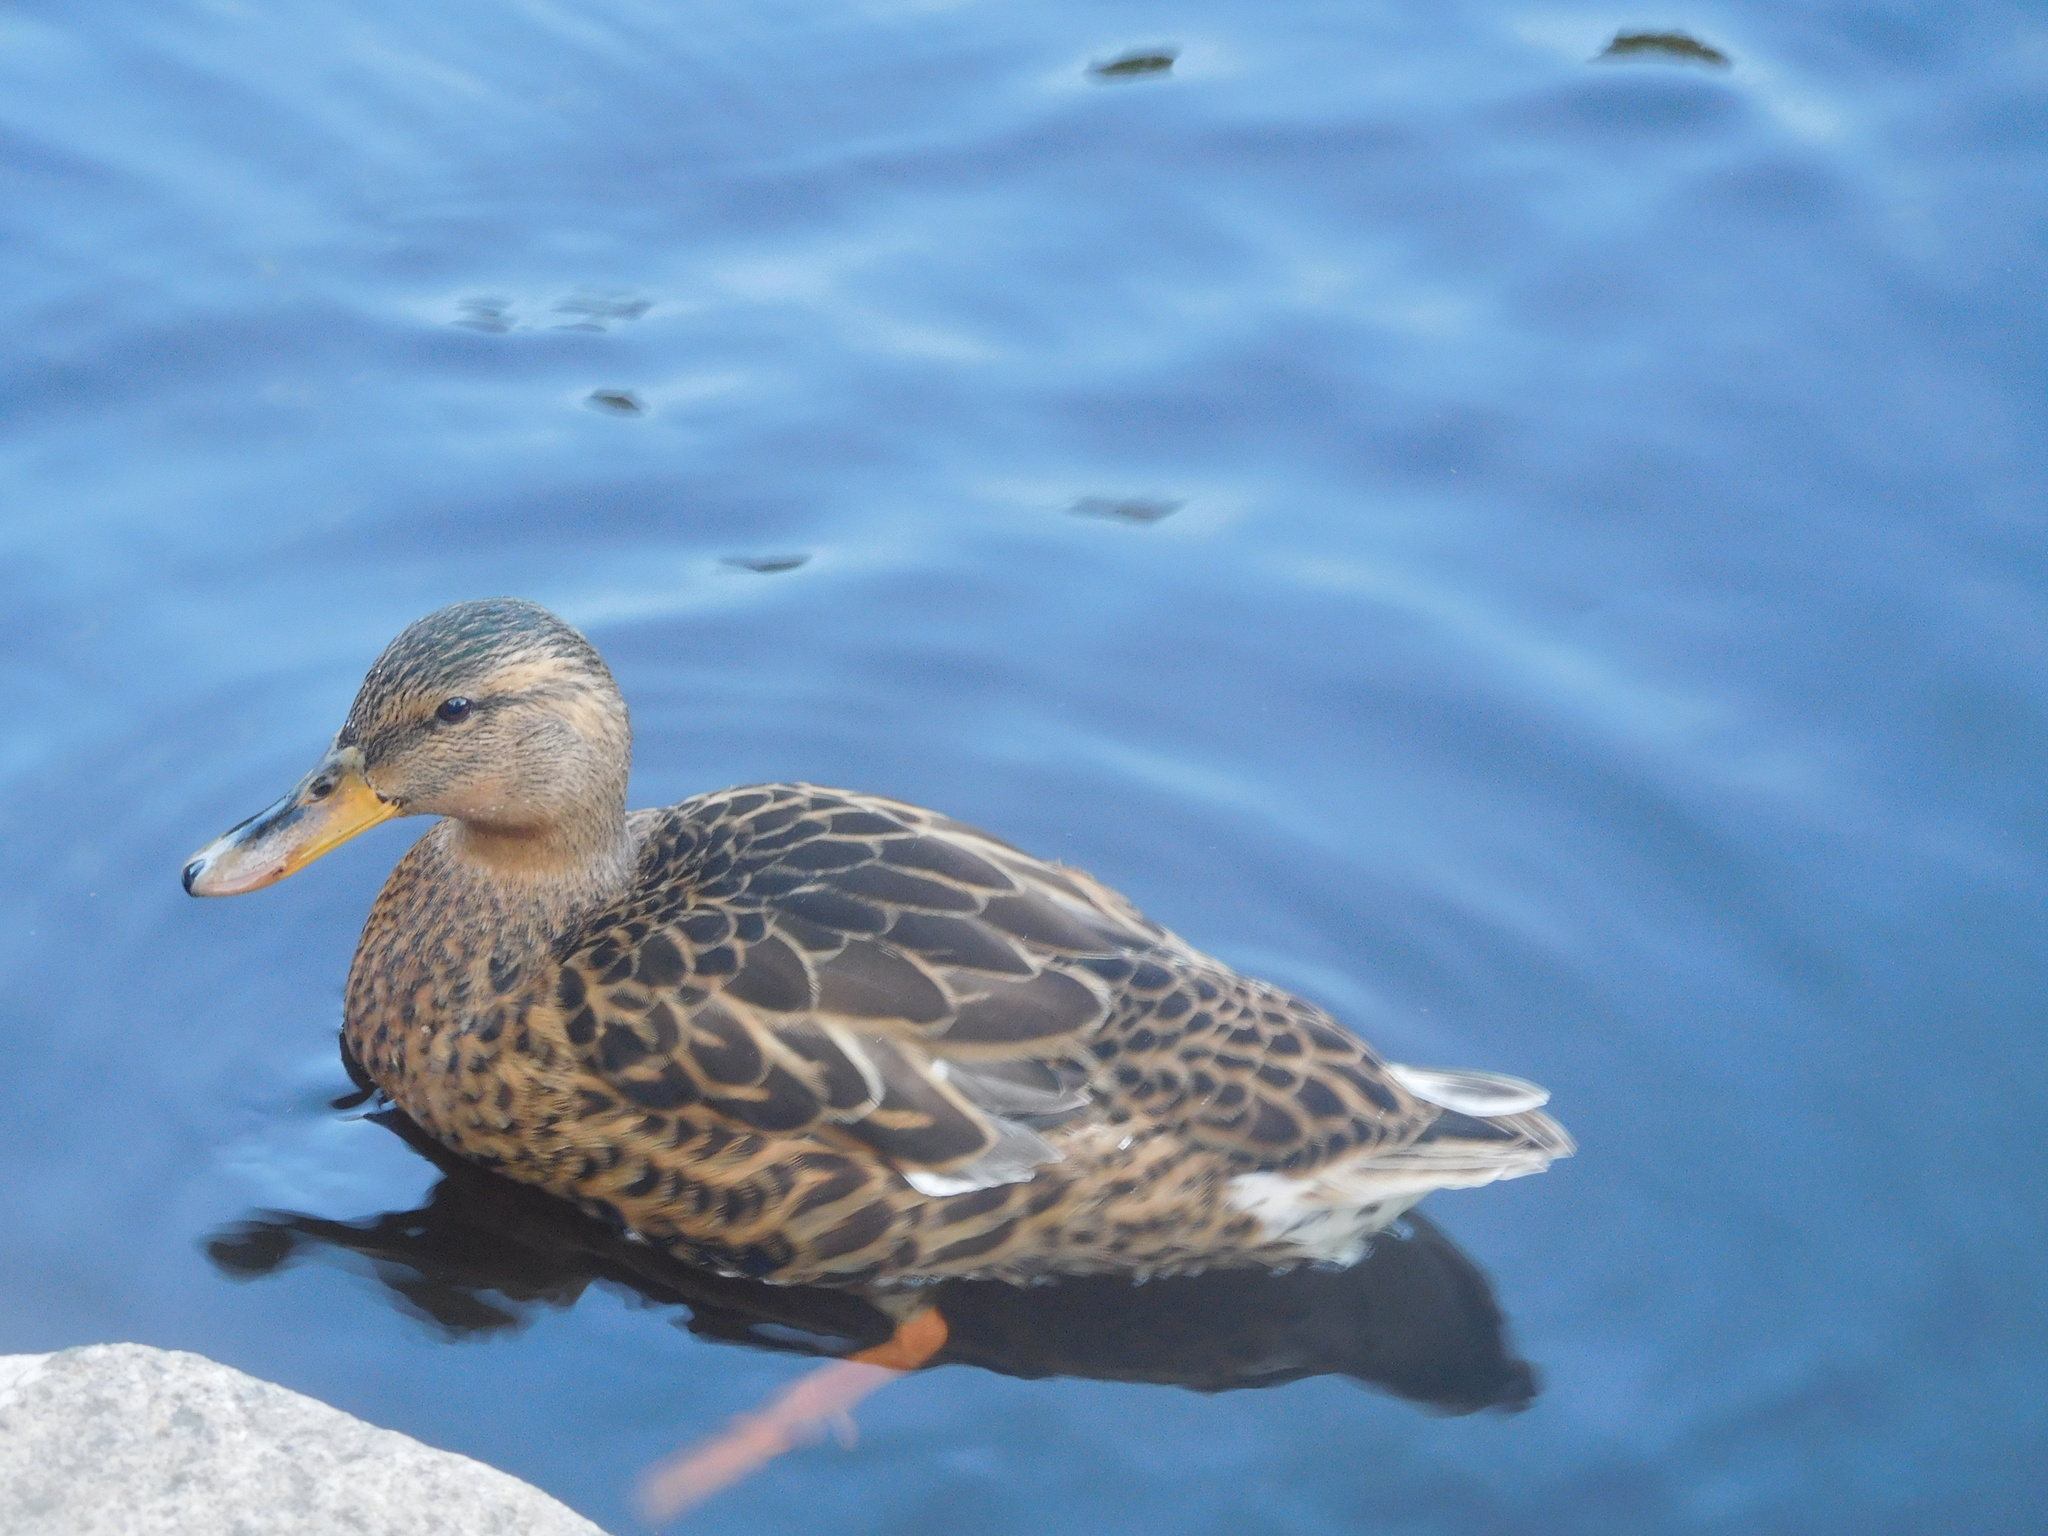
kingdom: Animalia
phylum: Chordata
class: Aves
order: Anseriformes
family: Anatidae
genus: Anas
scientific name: Anas platyrhynchos
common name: Mallard
